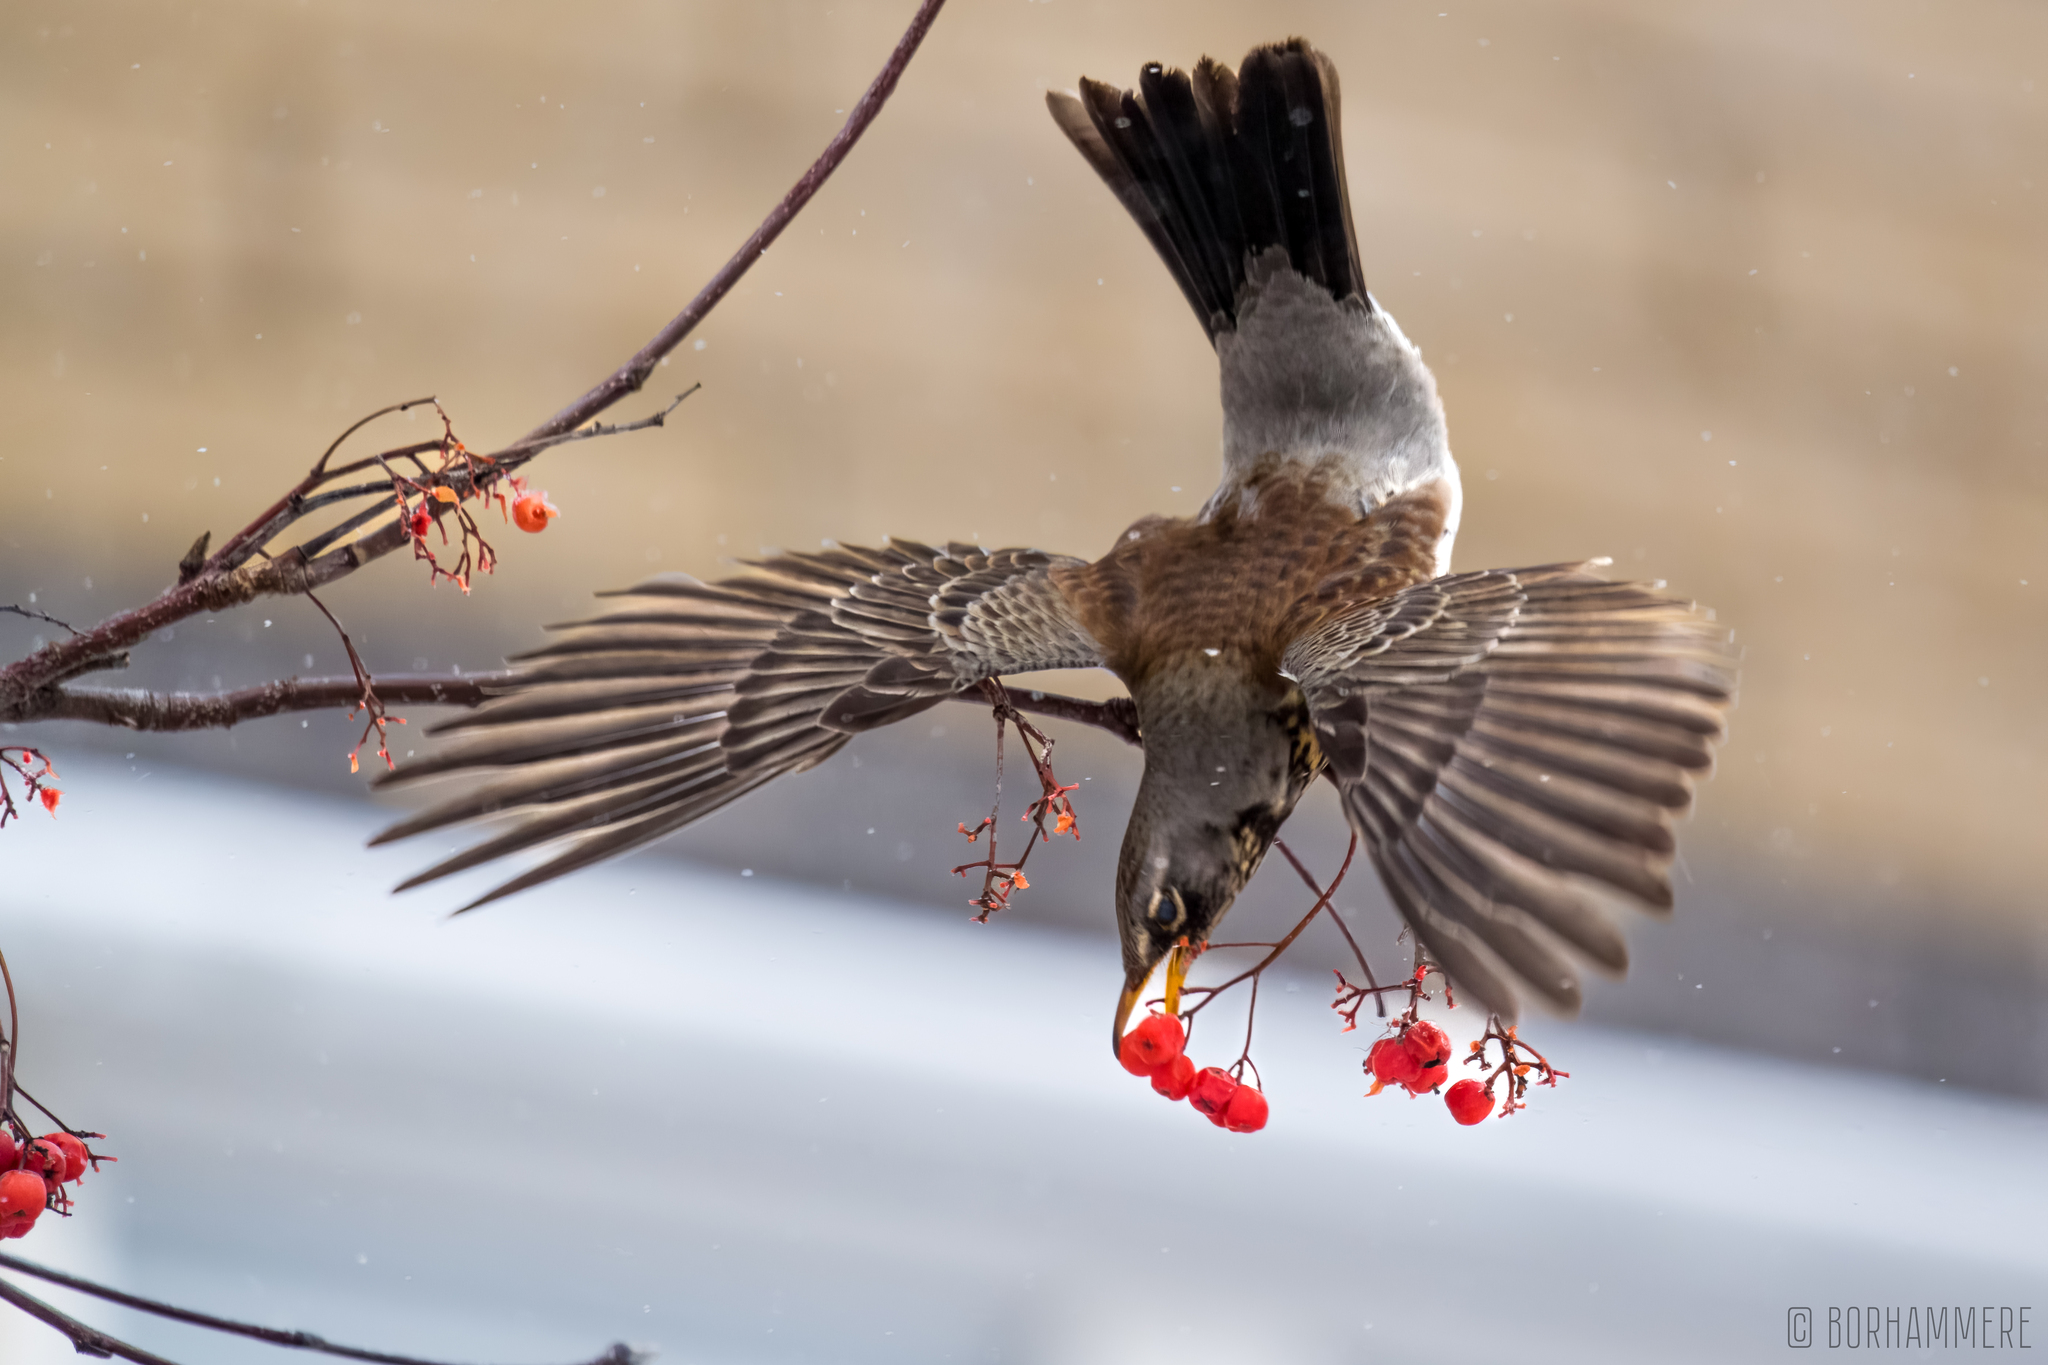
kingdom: Animalia
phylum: Chordata
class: Aves
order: Passeriformes
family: Turdidae
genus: Turdus
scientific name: Turdus pilaris
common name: Fieldfare
